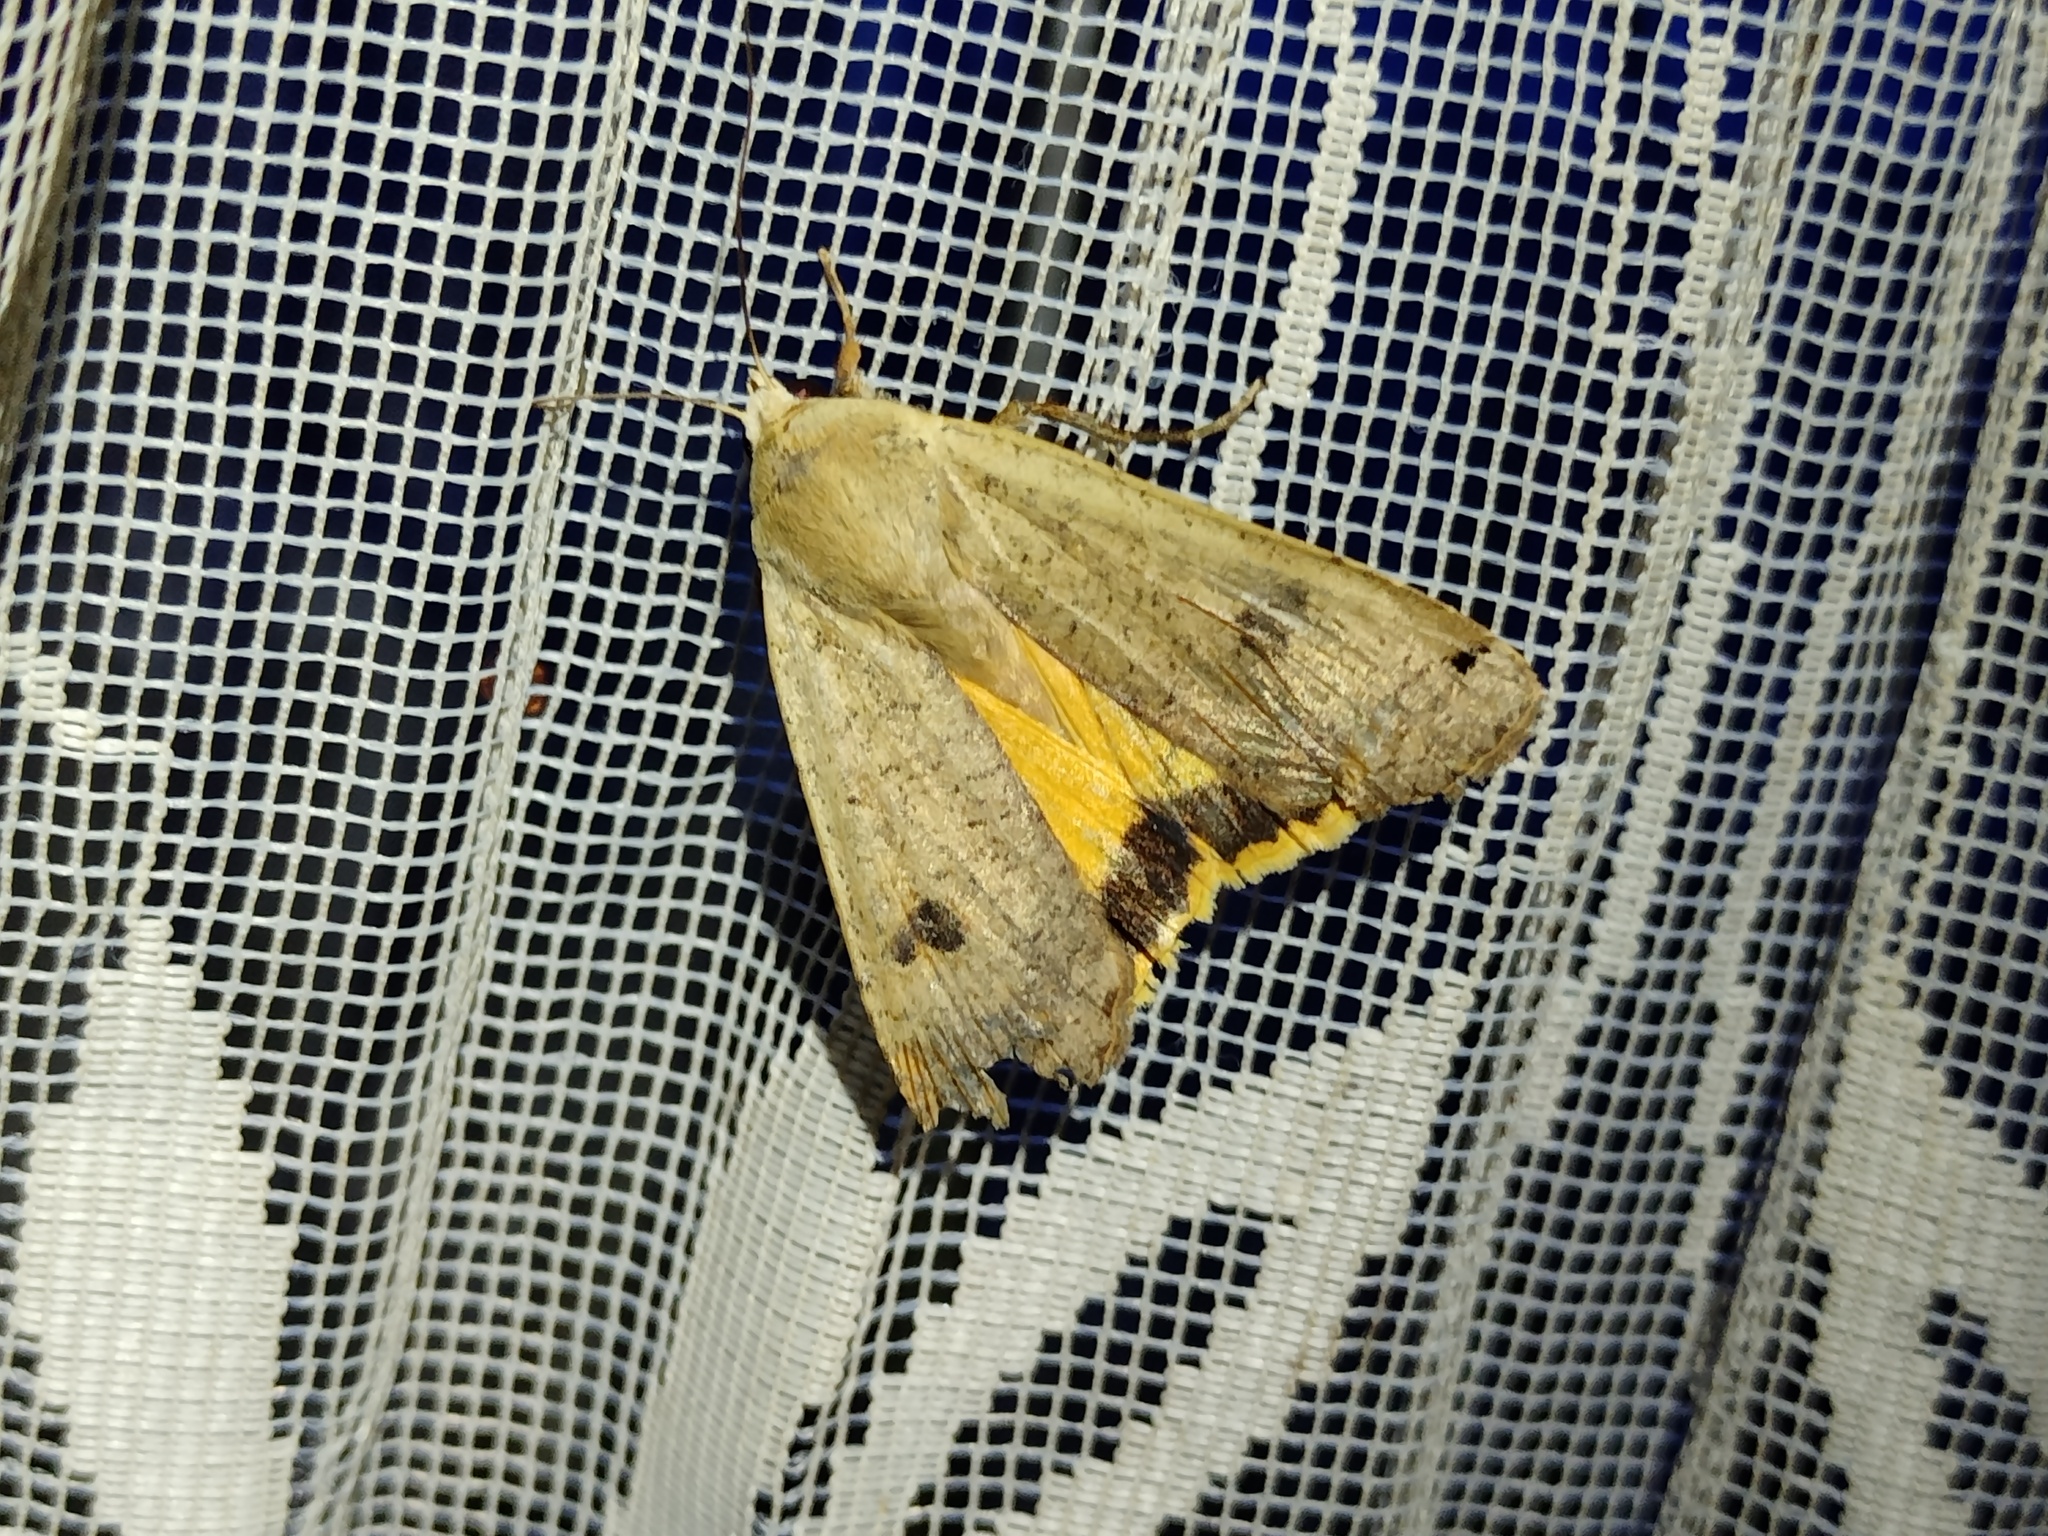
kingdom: Animalia
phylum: Arthropoda
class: Insecta
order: Lepidoptera
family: Noctuidae
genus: Noctua
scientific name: Noctua pronuba
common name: Large yellow underwing
